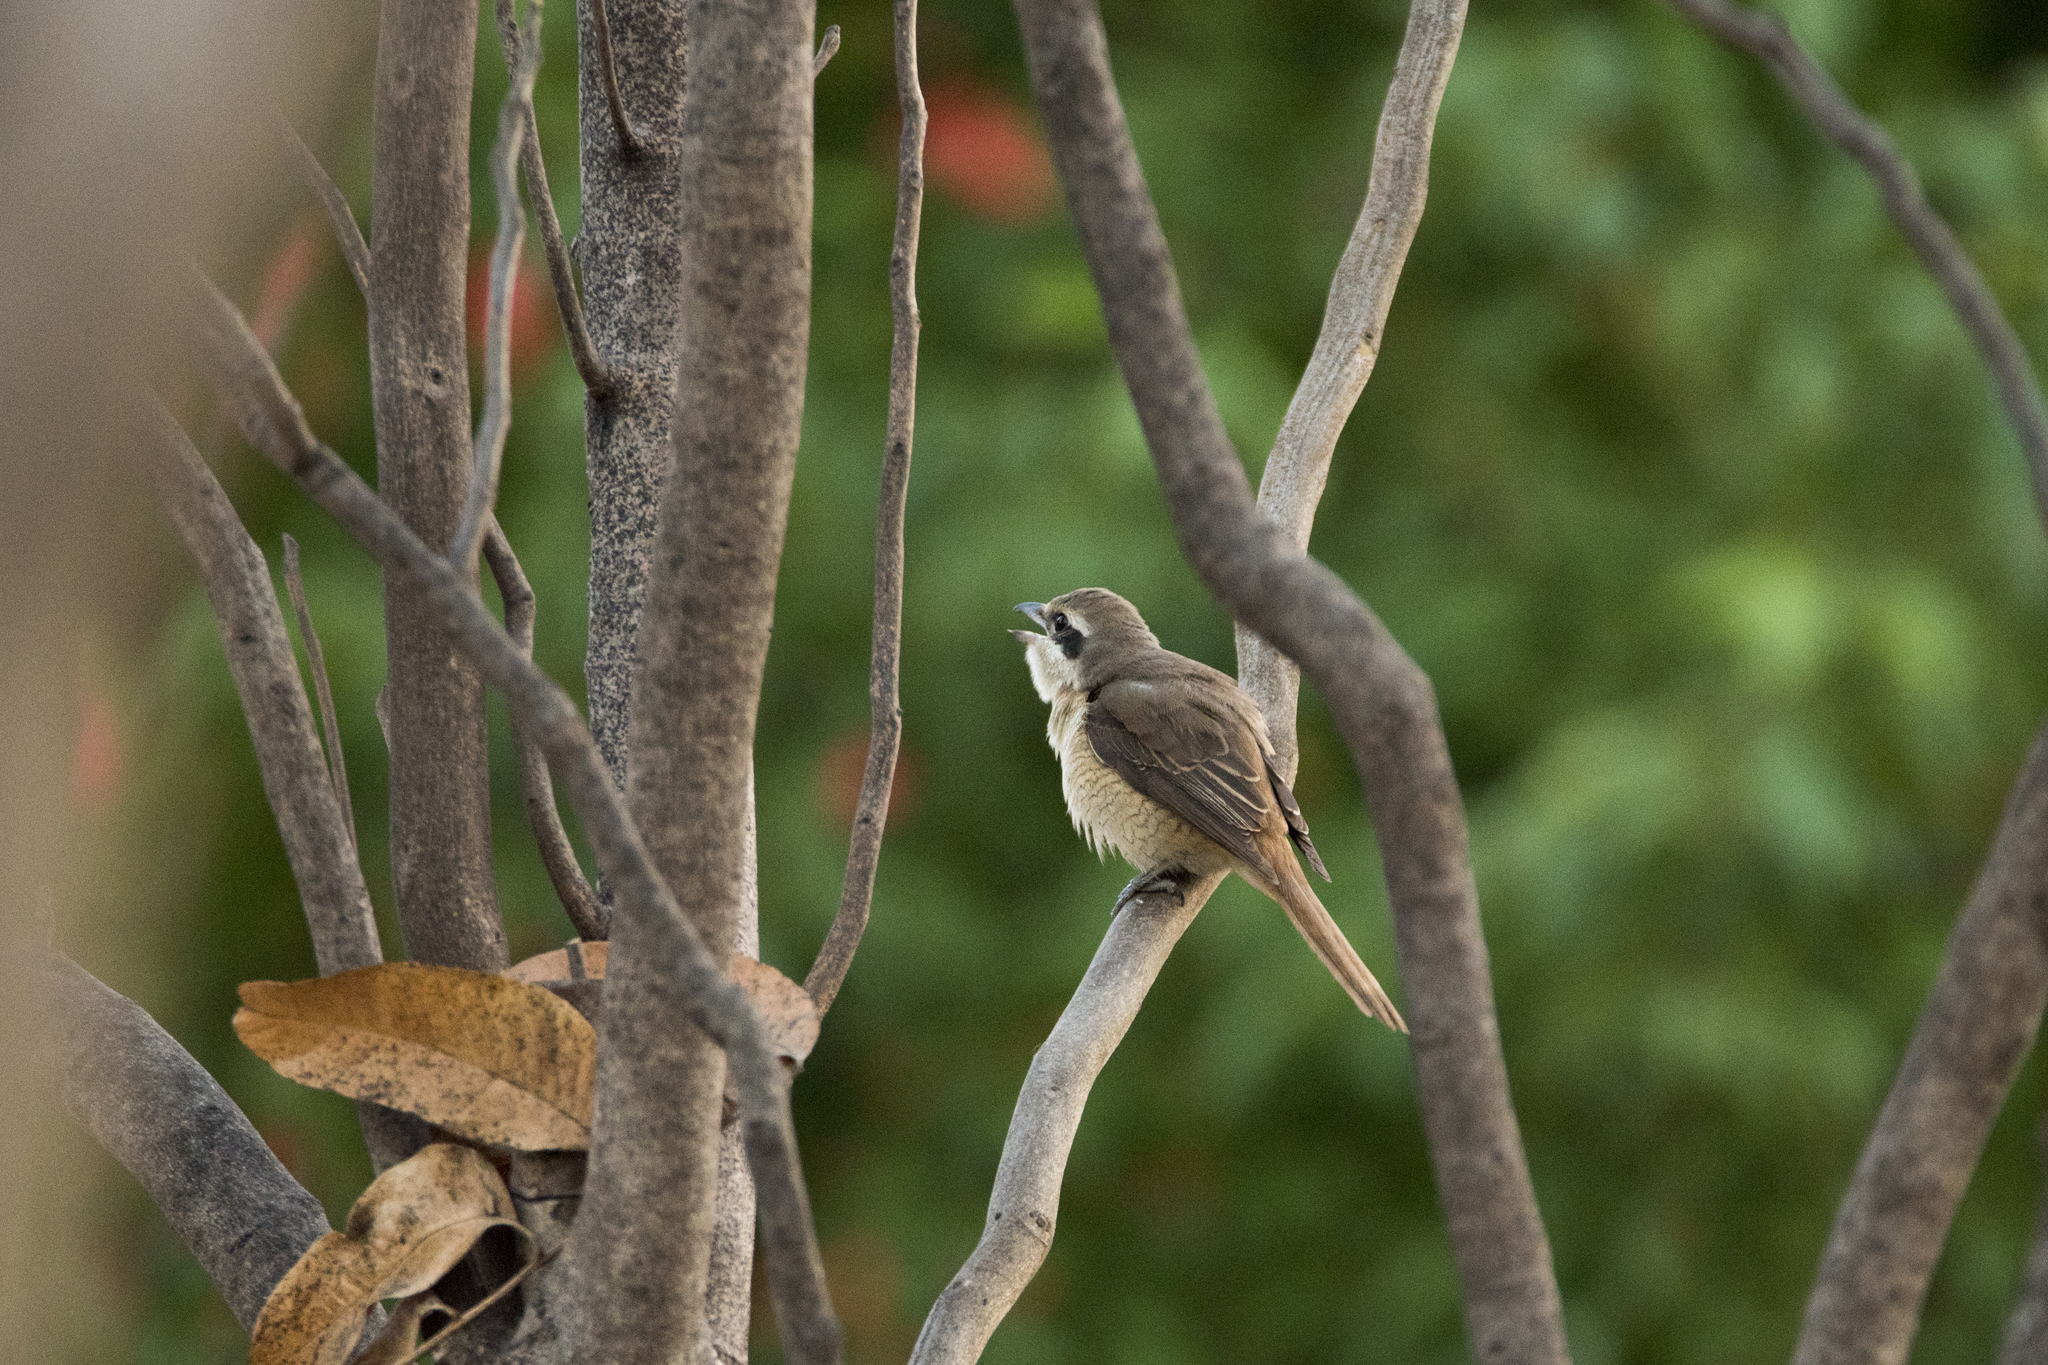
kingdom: Animalia
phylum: Chordata
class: Aves
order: Passeriformes
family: Laniidae
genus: Lanius
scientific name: Lanius cristatus
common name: Brown shrike
